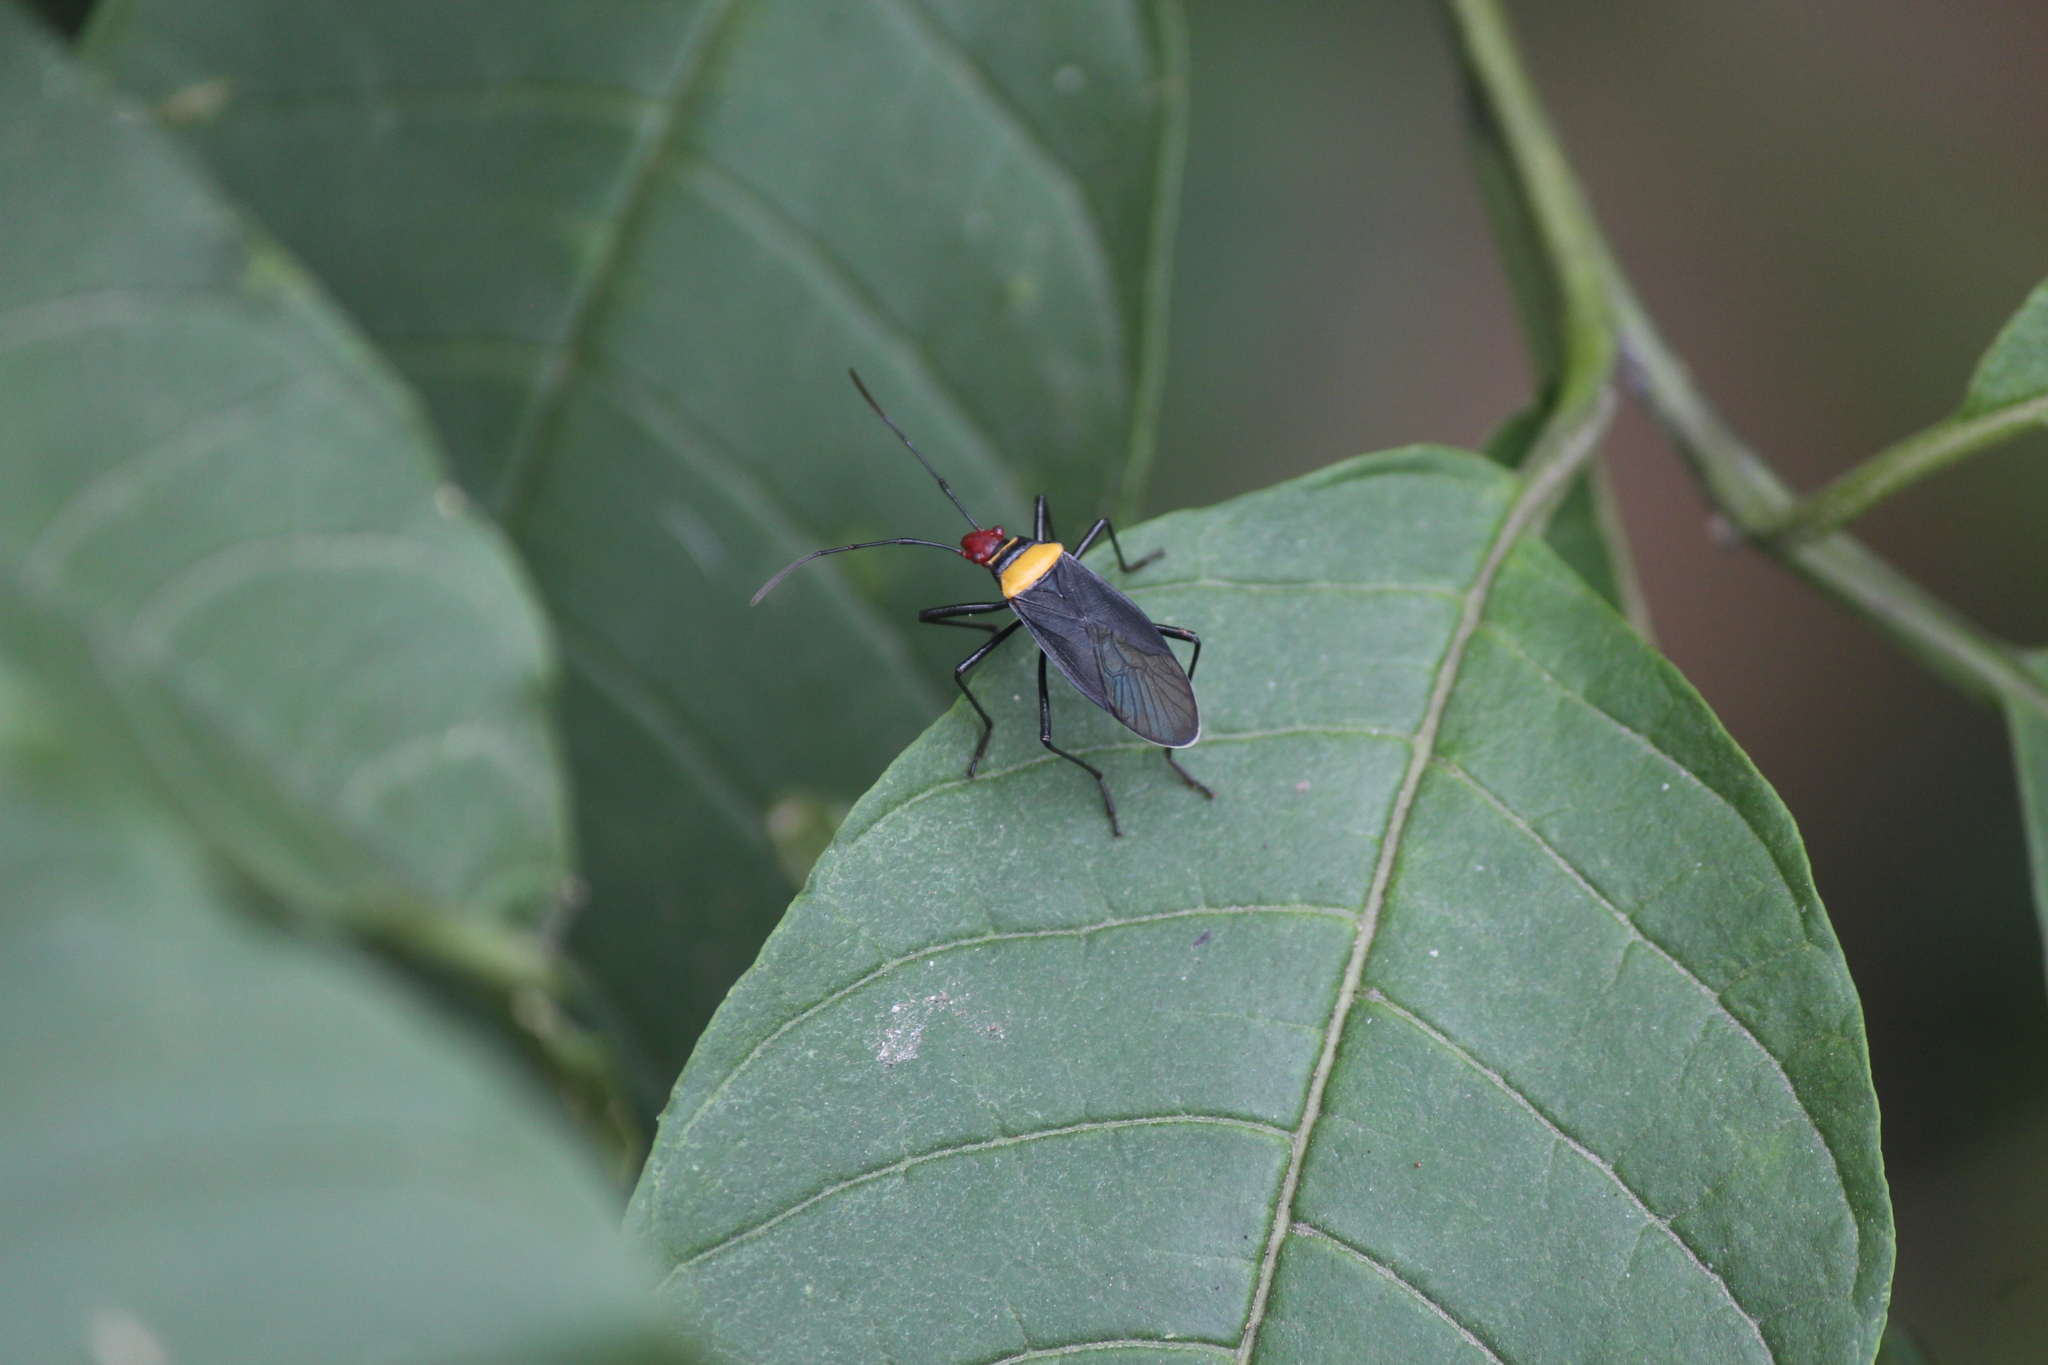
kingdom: Animalia
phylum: Arthropoda
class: Insecta
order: Hemiptera
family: Pyrrhocoridae
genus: Dysdercus
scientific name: Dysdercus
